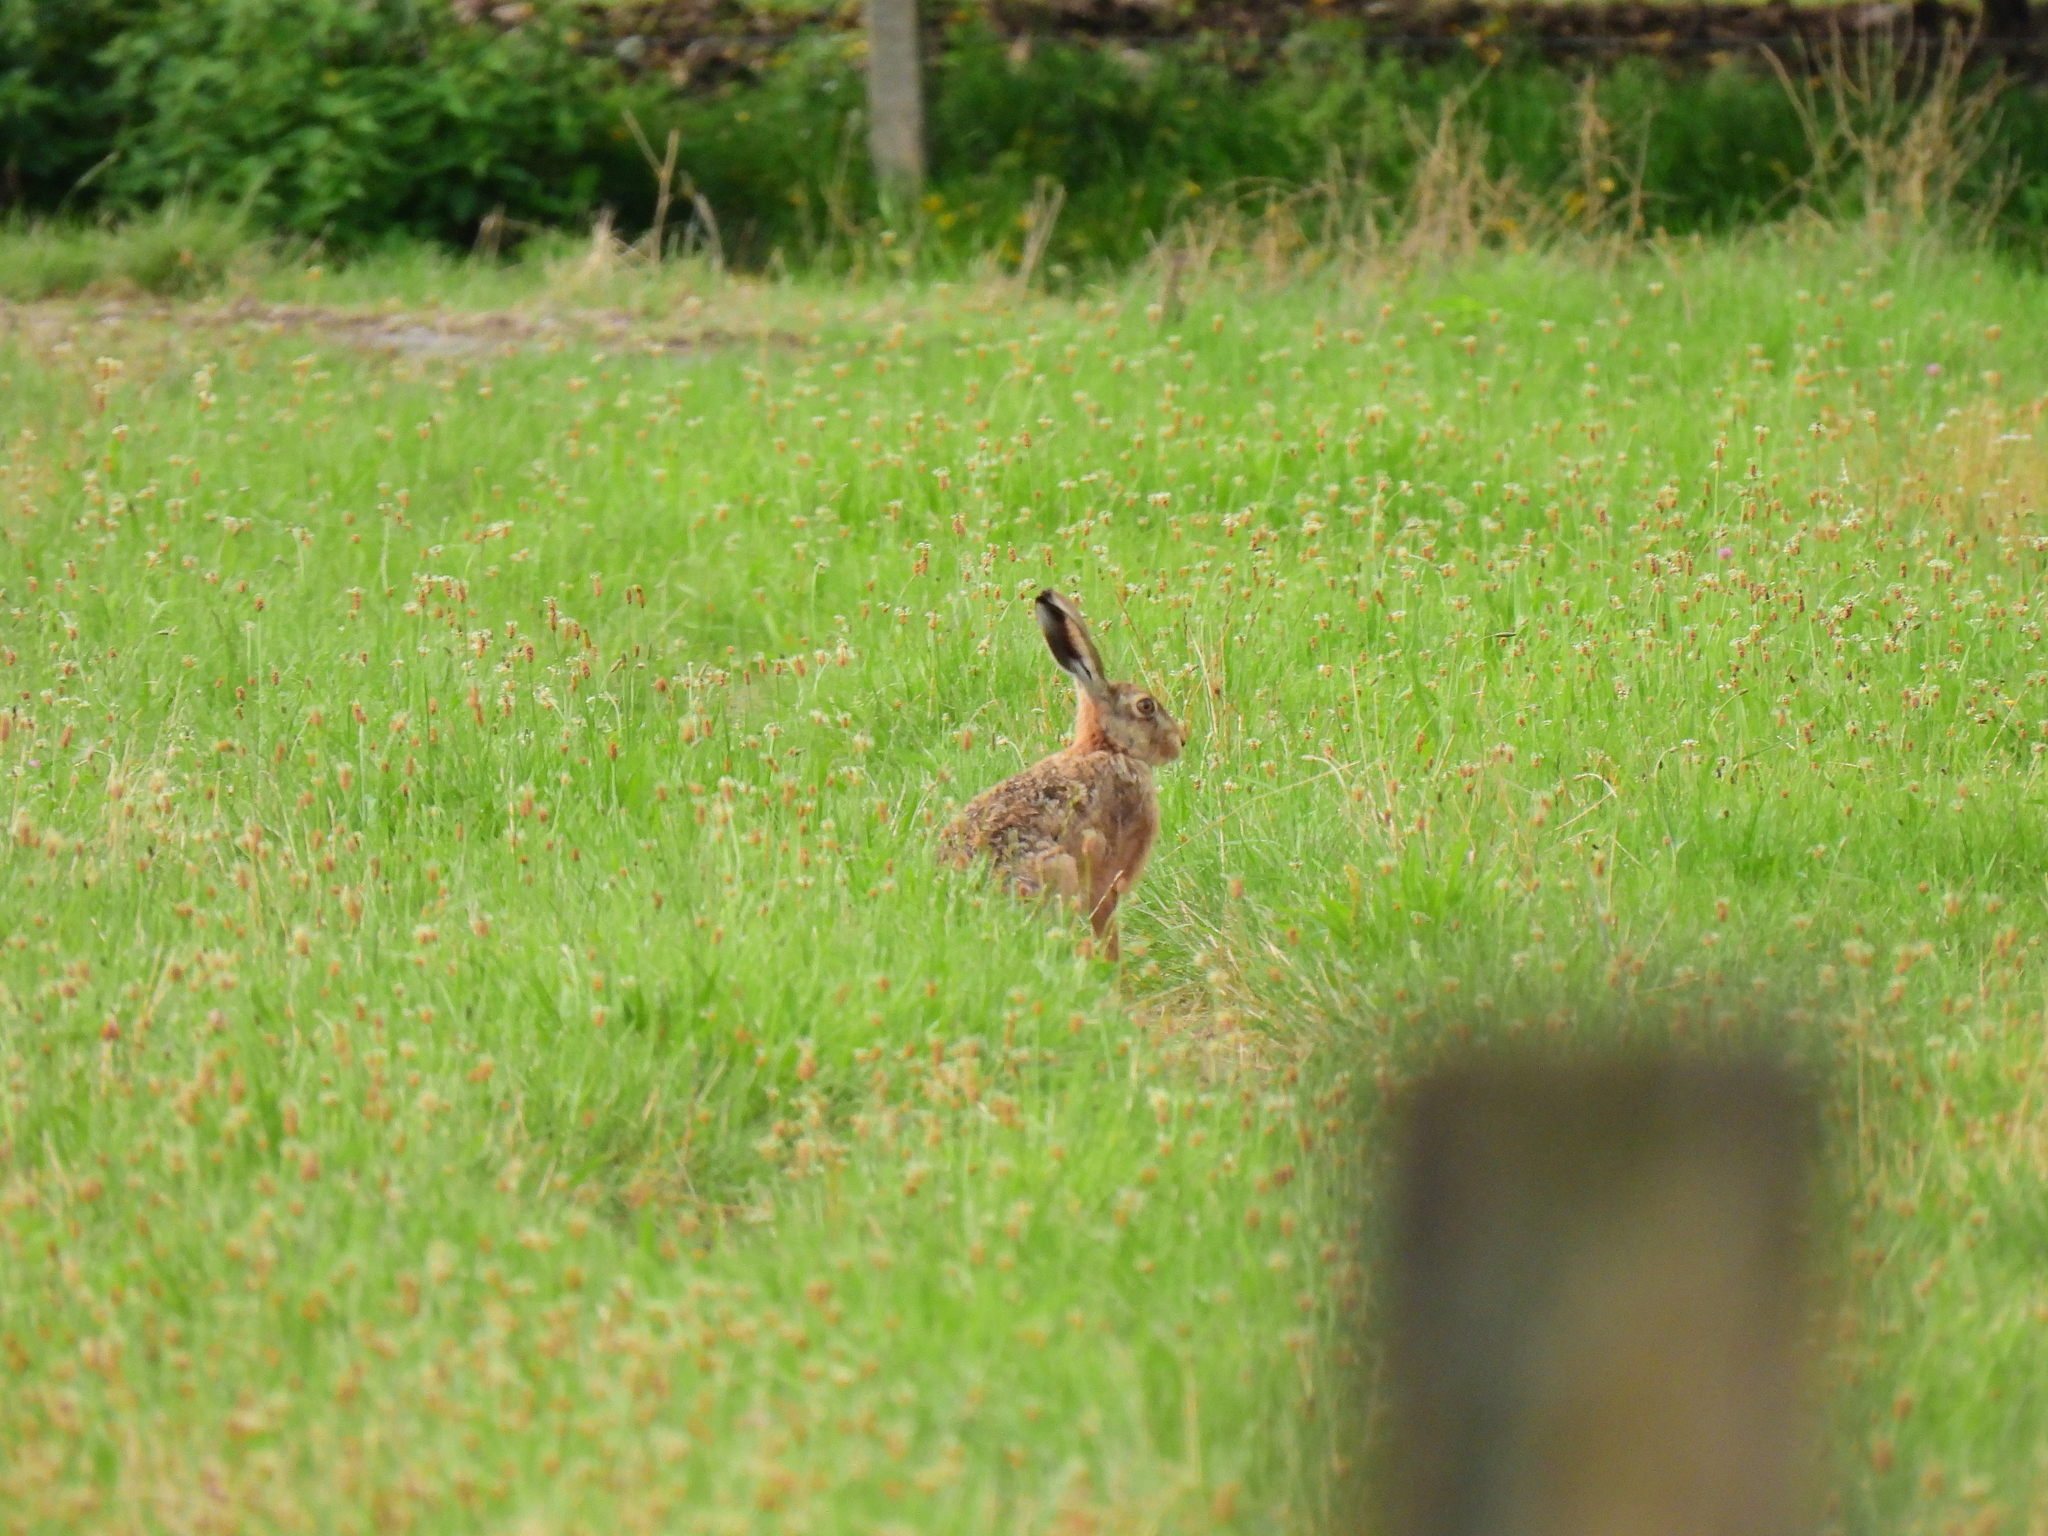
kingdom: Animalia
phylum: Chordata
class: Mammalia
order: Lagomorpha
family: Leporidae
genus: Lepus
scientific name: Lepus europaeus
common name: European hare
